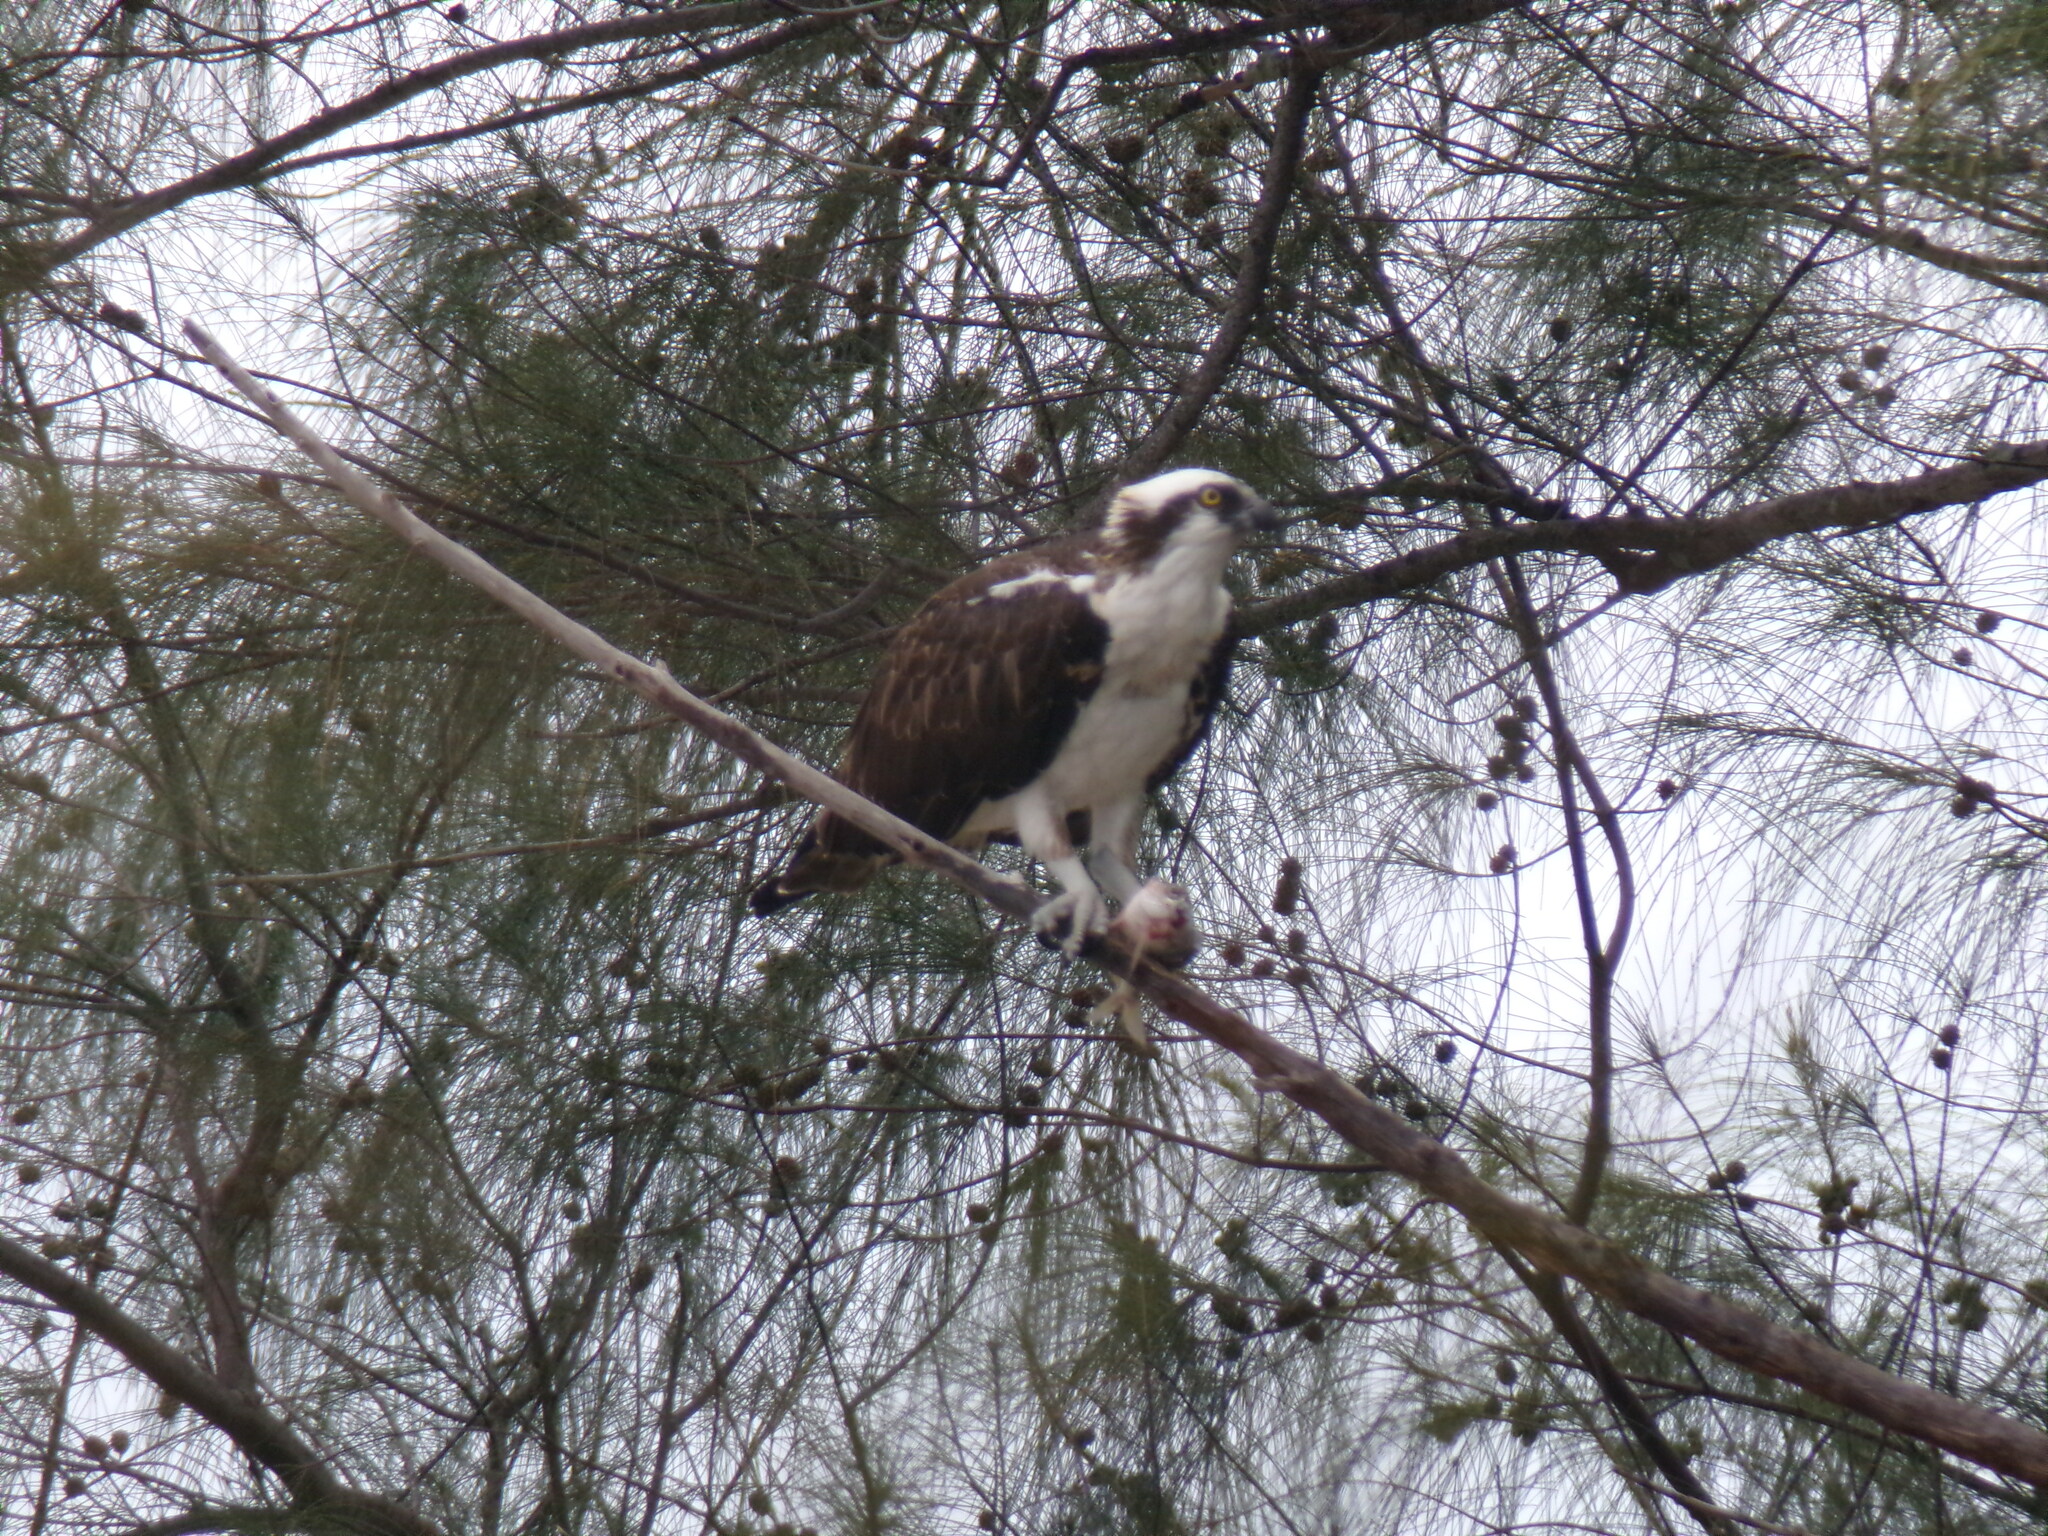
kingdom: Animalia
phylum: Chordata
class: Aves
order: Accipitriformes
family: Pandionidae
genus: Pandion
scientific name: Pandion haliaetus
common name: Osprey
